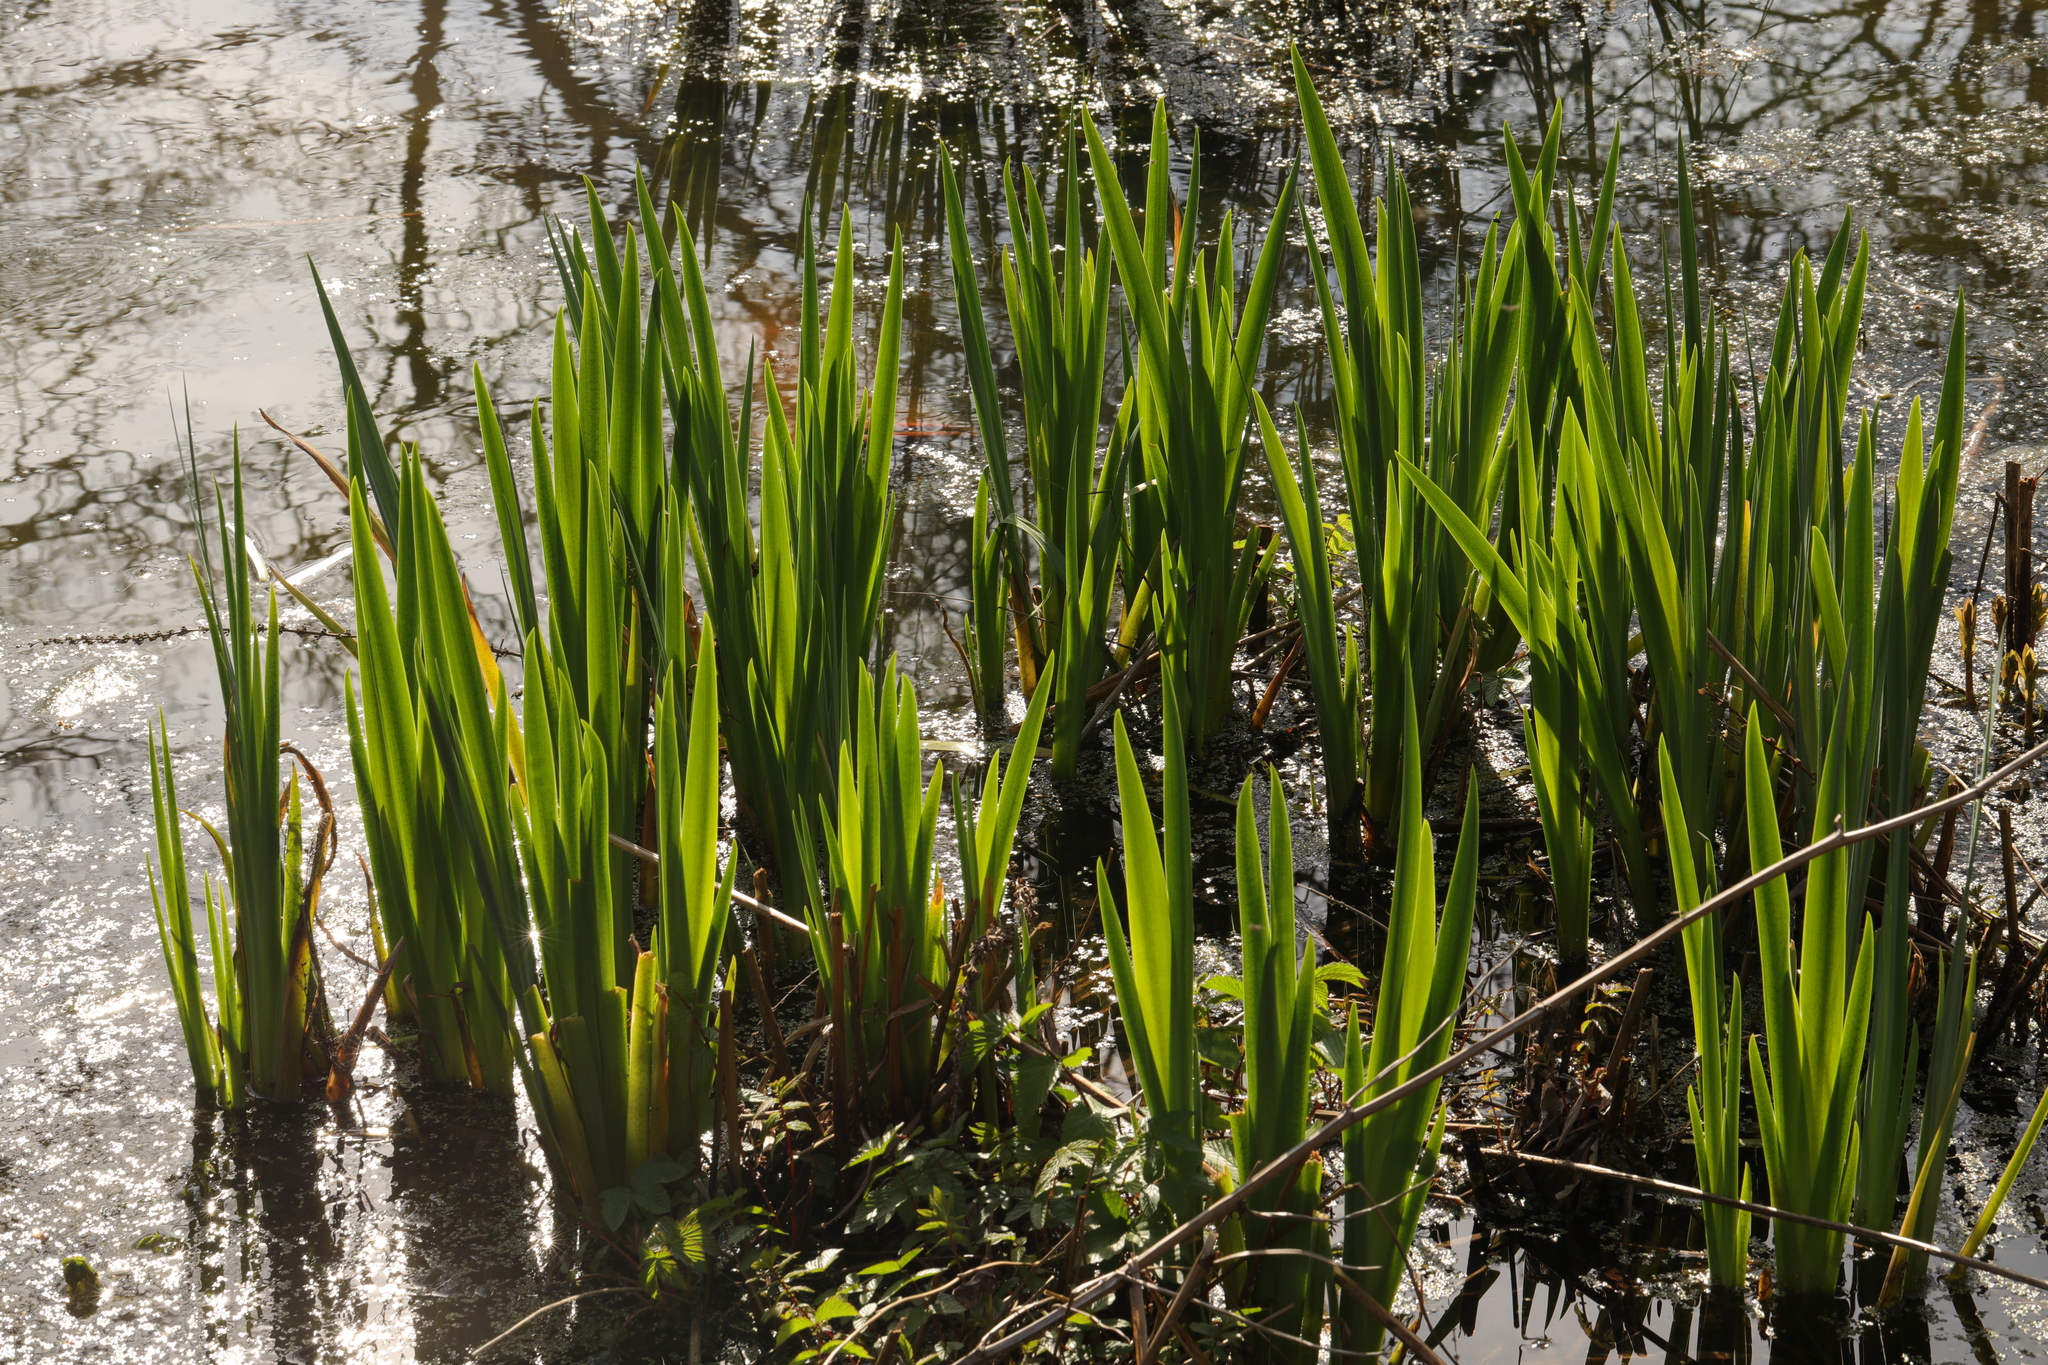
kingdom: Plantae
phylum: Tracheophyta
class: Liliopsida
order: Asparagales
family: Iridaceae
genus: Iris
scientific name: Iris pseudacorus
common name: Yellow flag
